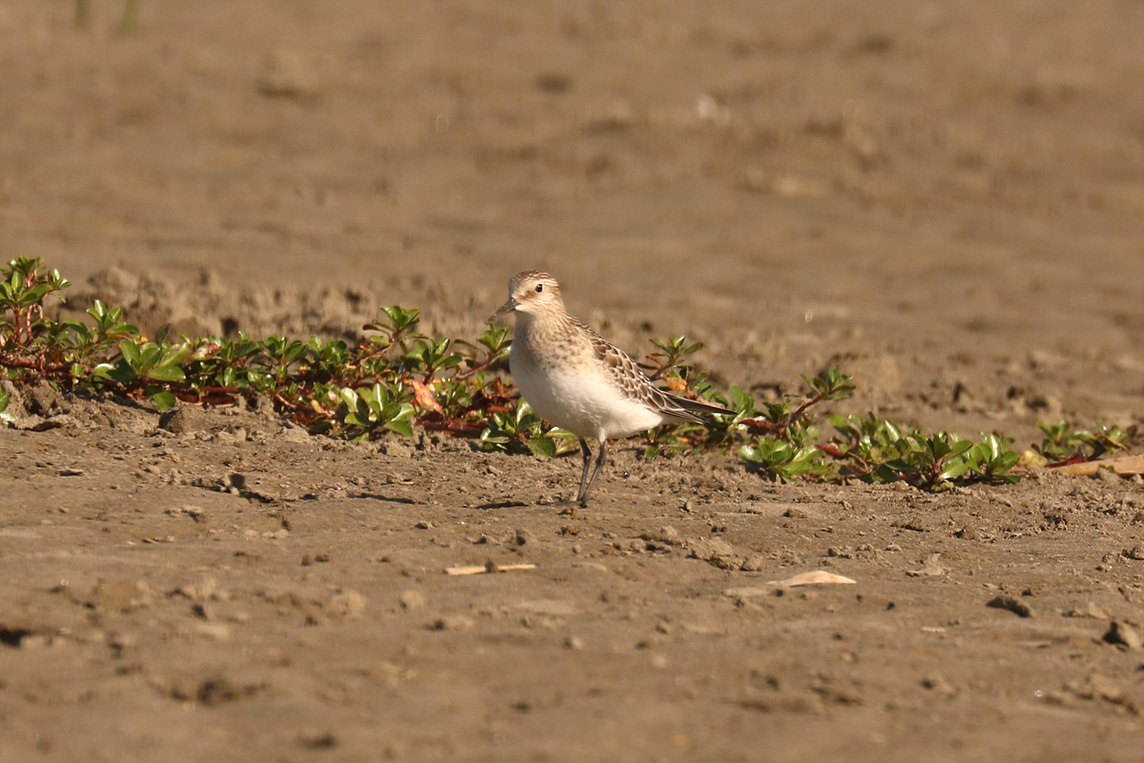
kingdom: Animalia
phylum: Chordata
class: Aves
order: Charadriiformes
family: Scolopacidae
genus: Calidris
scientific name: Calidris bairdii
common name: Baird's sandpiper
